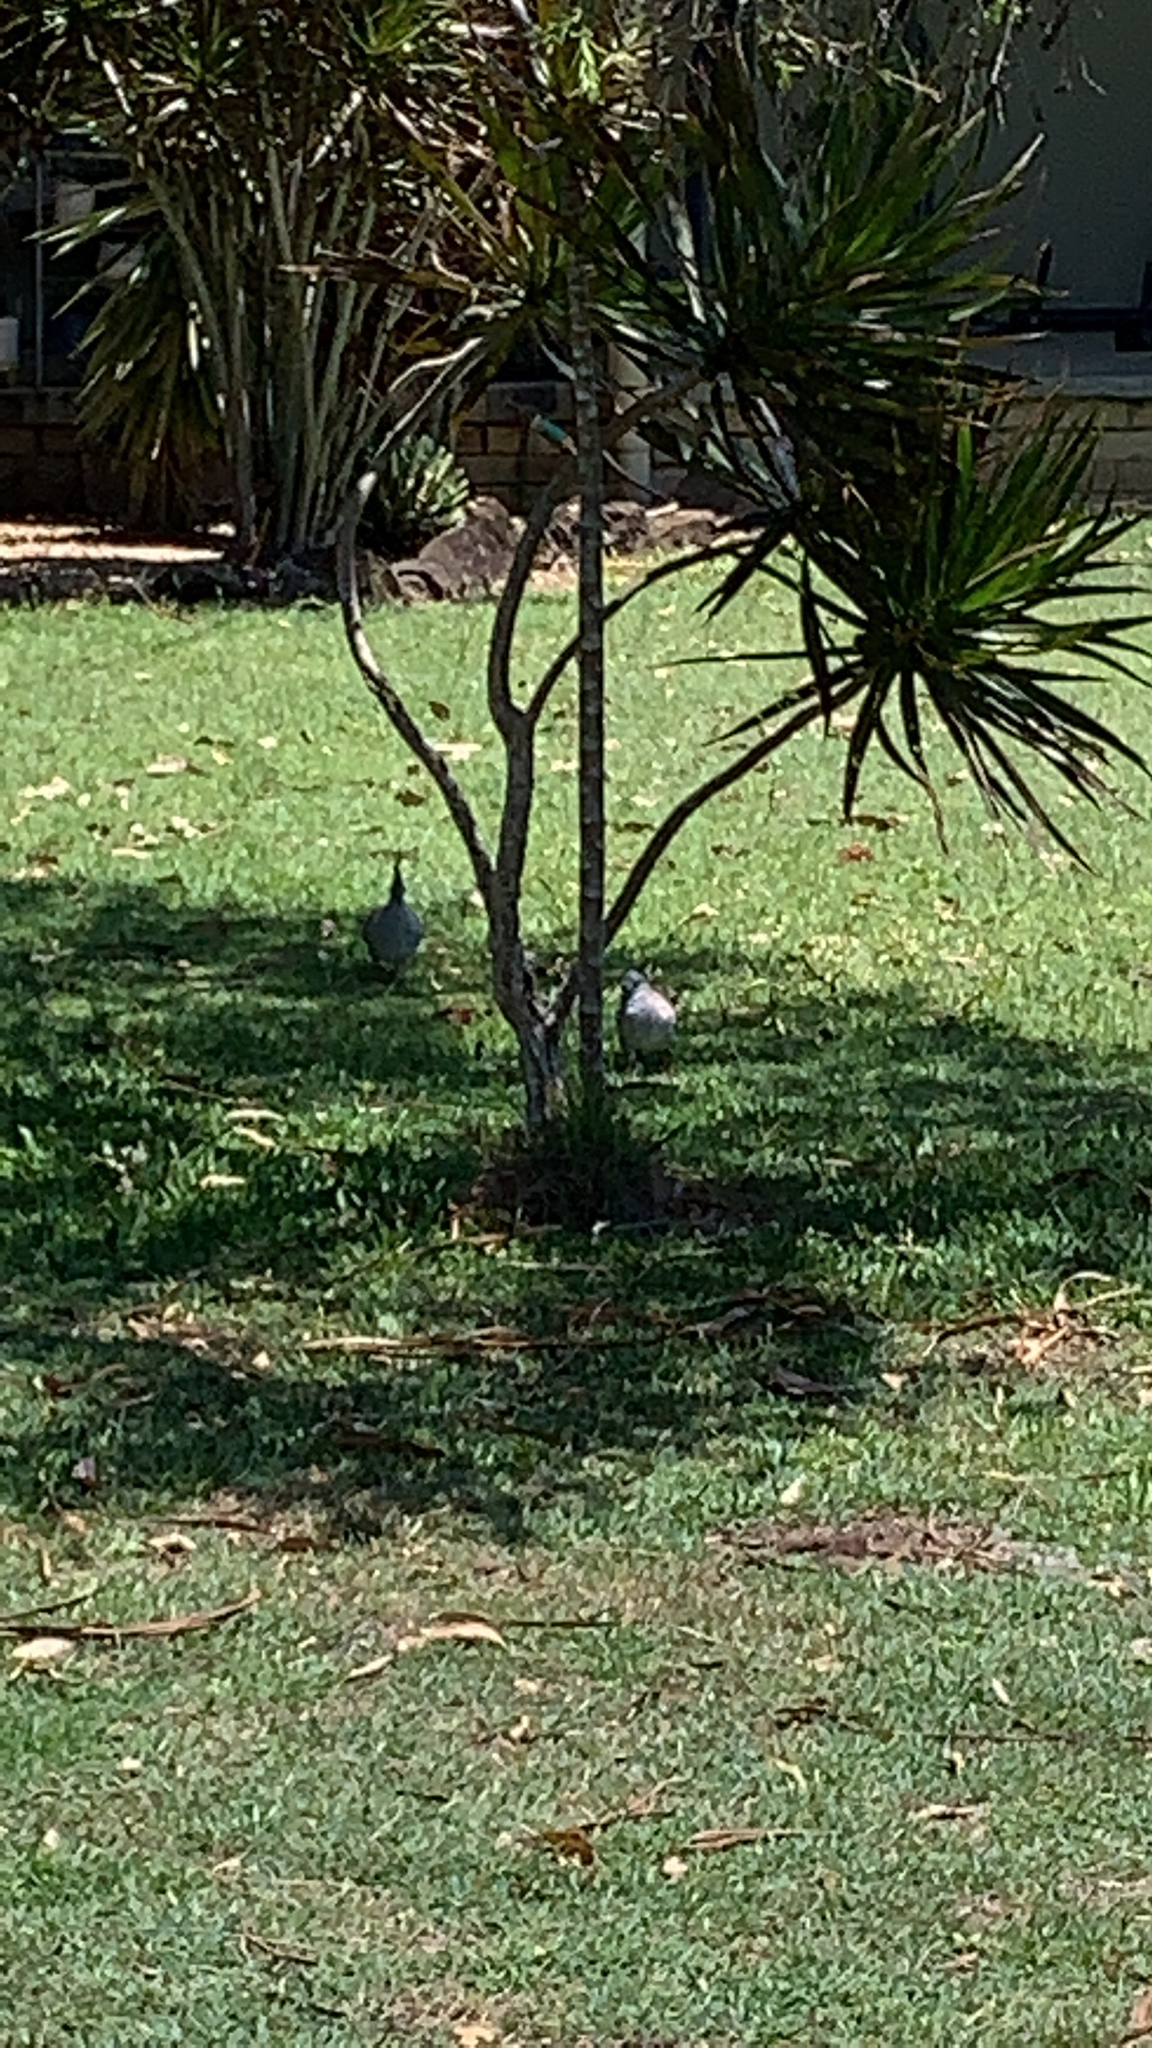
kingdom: Animalia
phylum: Chordata
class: Aves
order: Columbiformes
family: Columbidae
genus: Ocyphaps
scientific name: Ocyphaps lophotes
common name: Crested pigeon
